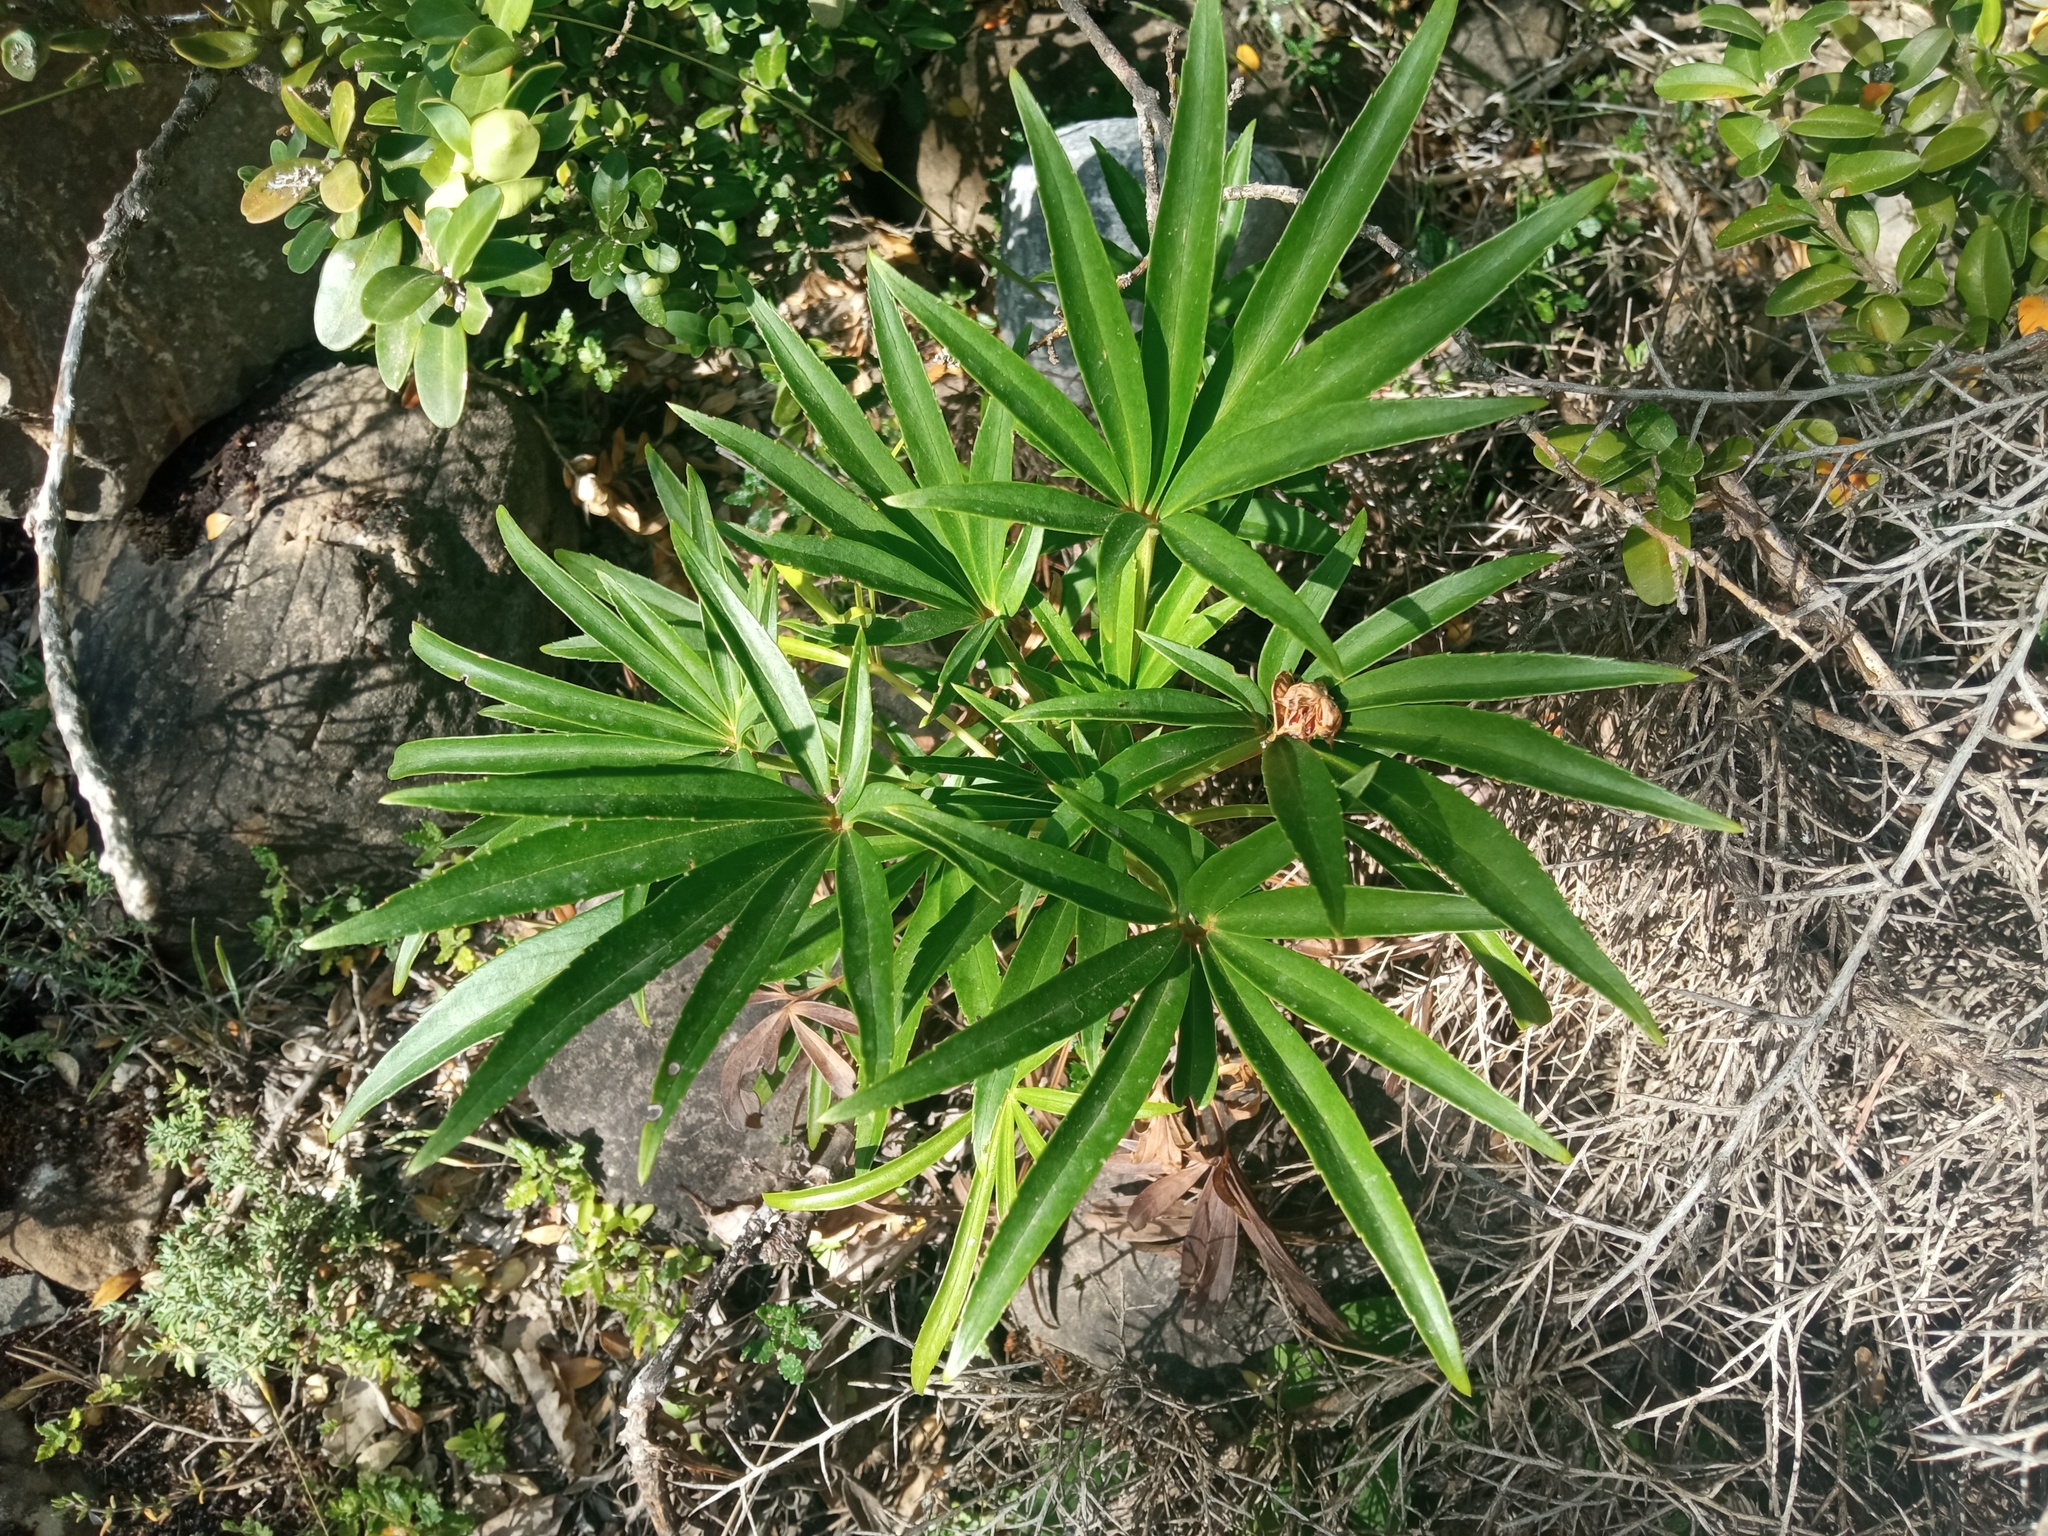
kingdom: Plantae
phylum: Tracheophyta
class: Magnoliopsida
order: Ranunculales
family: Ranunculaceae
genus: Helleborus
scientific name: Helleborus foetidus
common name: Stinking hellebore
